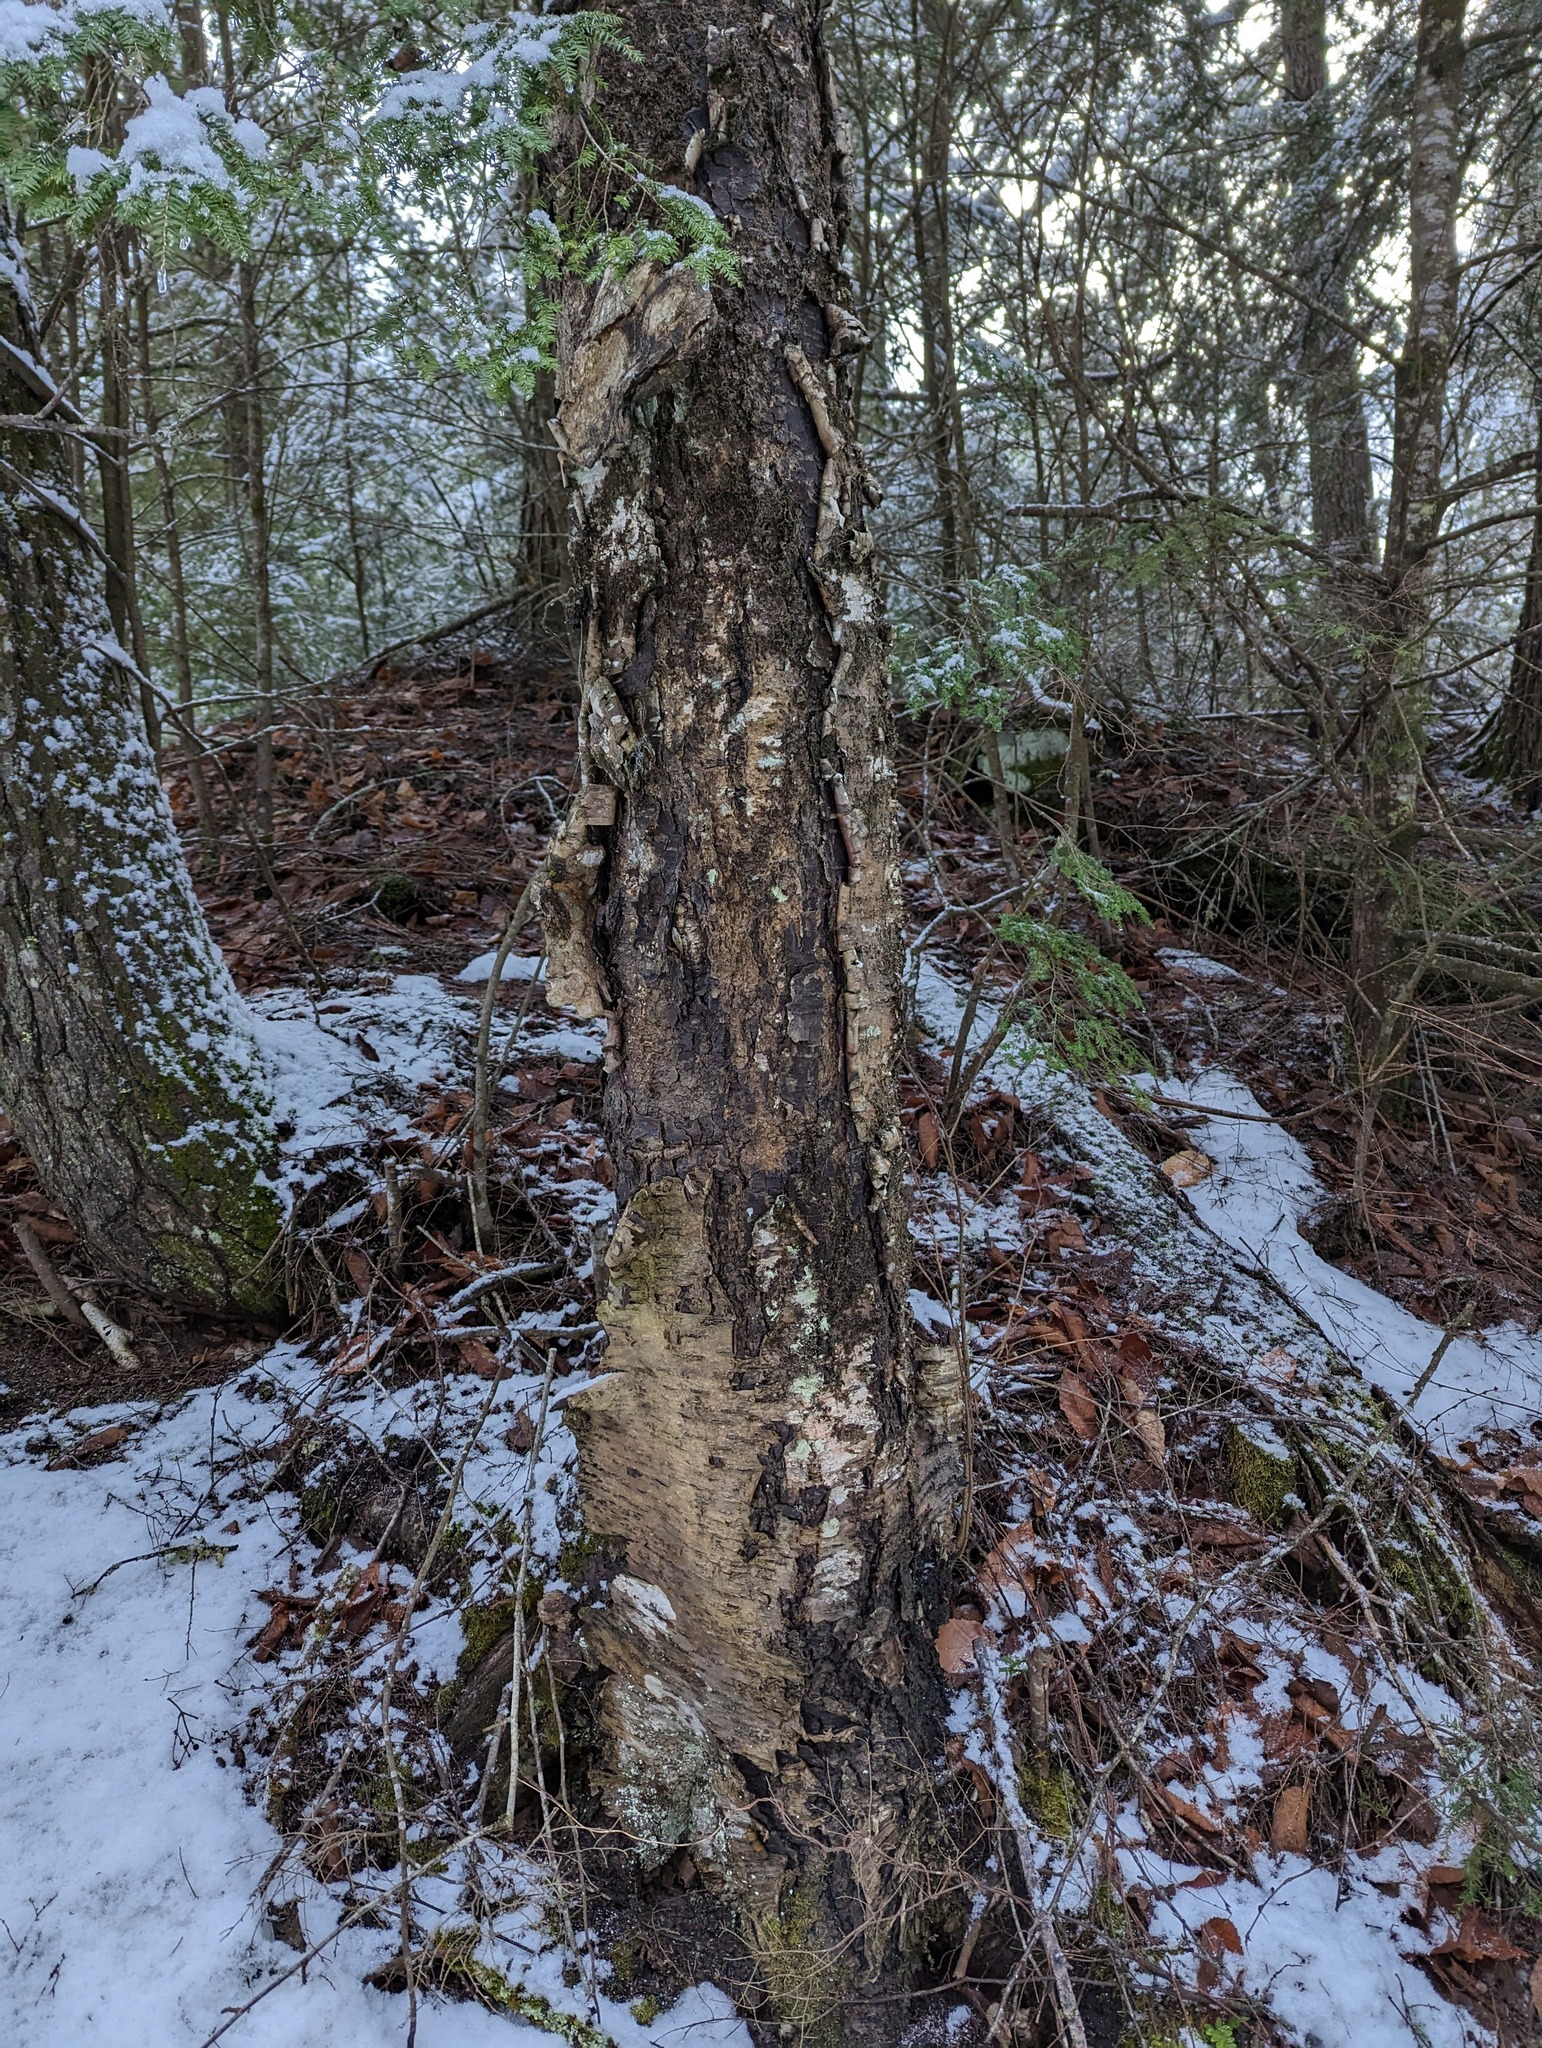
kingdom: Plantae
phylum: Tracheophyta
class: Magnoliopsida
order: Fagales
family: Betulaceae
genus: Betula
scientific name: Betula alleghaniensis
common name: Yellow birch
